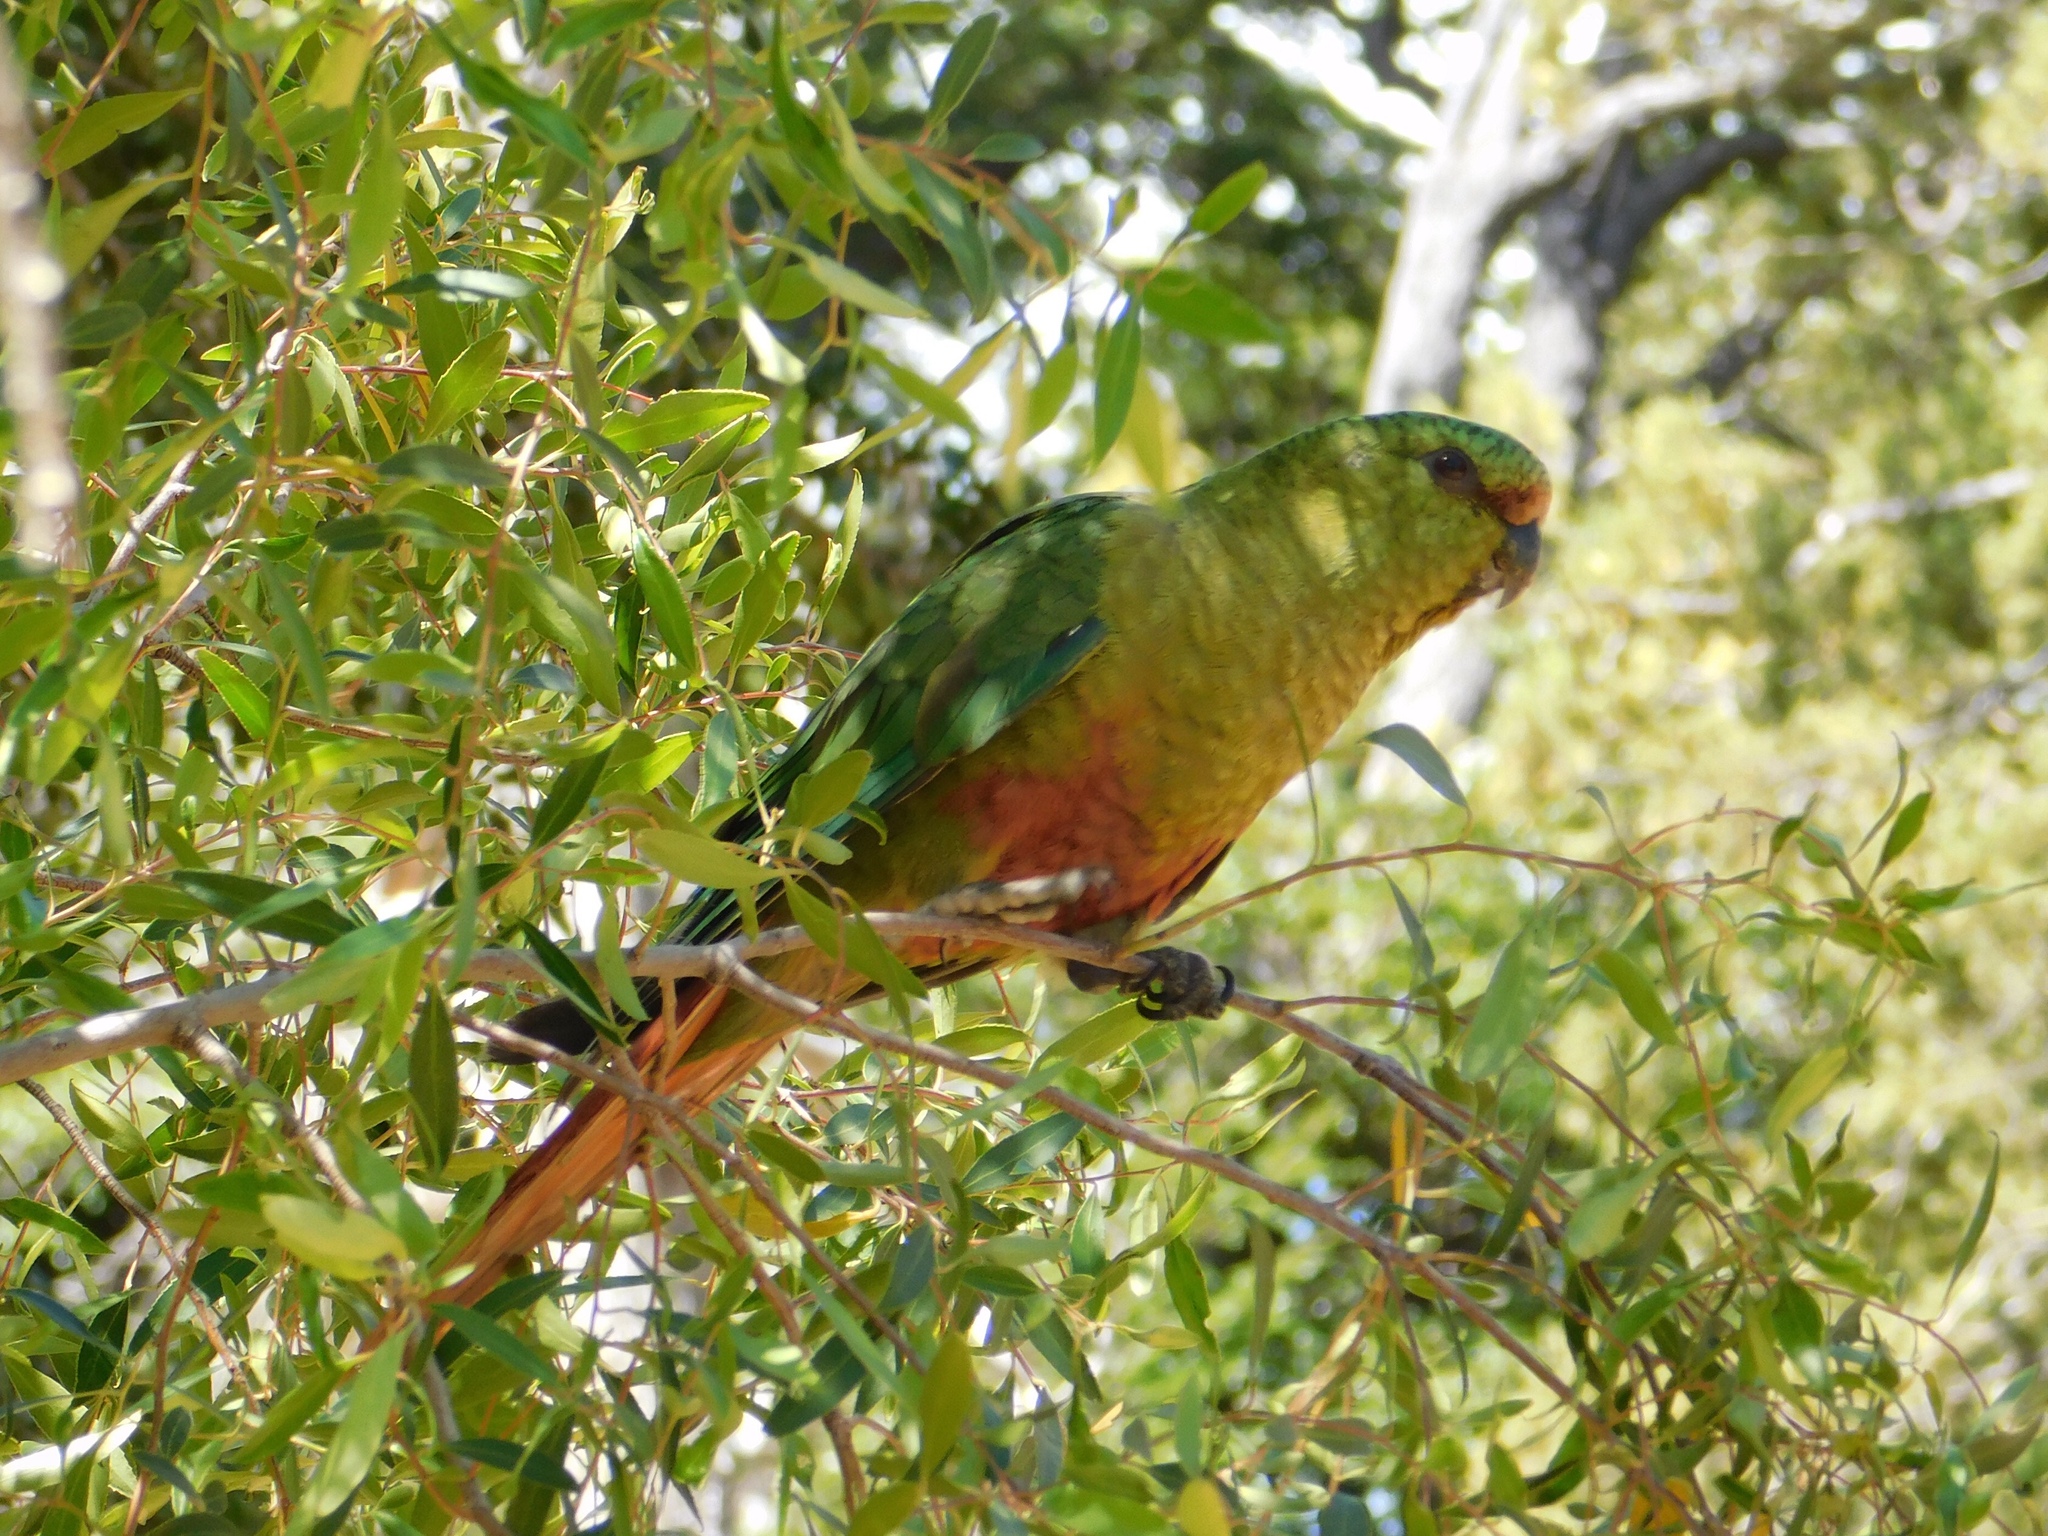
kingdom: Animalia
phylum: Chordata
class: Aves
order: Psittaciformes
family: Psittacidae
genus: Enicognathus
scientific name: Enicognathus ferrugineus
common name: Austral parakeet
